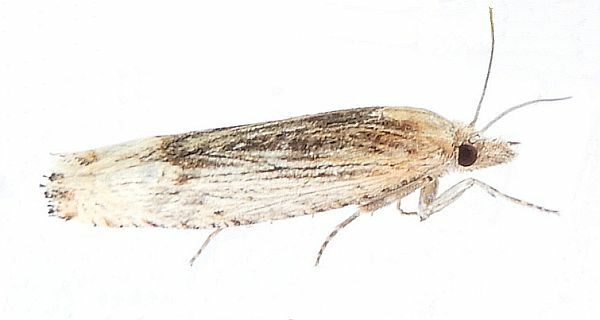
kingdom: Animalia
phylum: Arthropoda
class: Insecta
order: Lepidoptera
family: Tortricidae
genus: Suleima
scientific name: Suleima skinnerana
